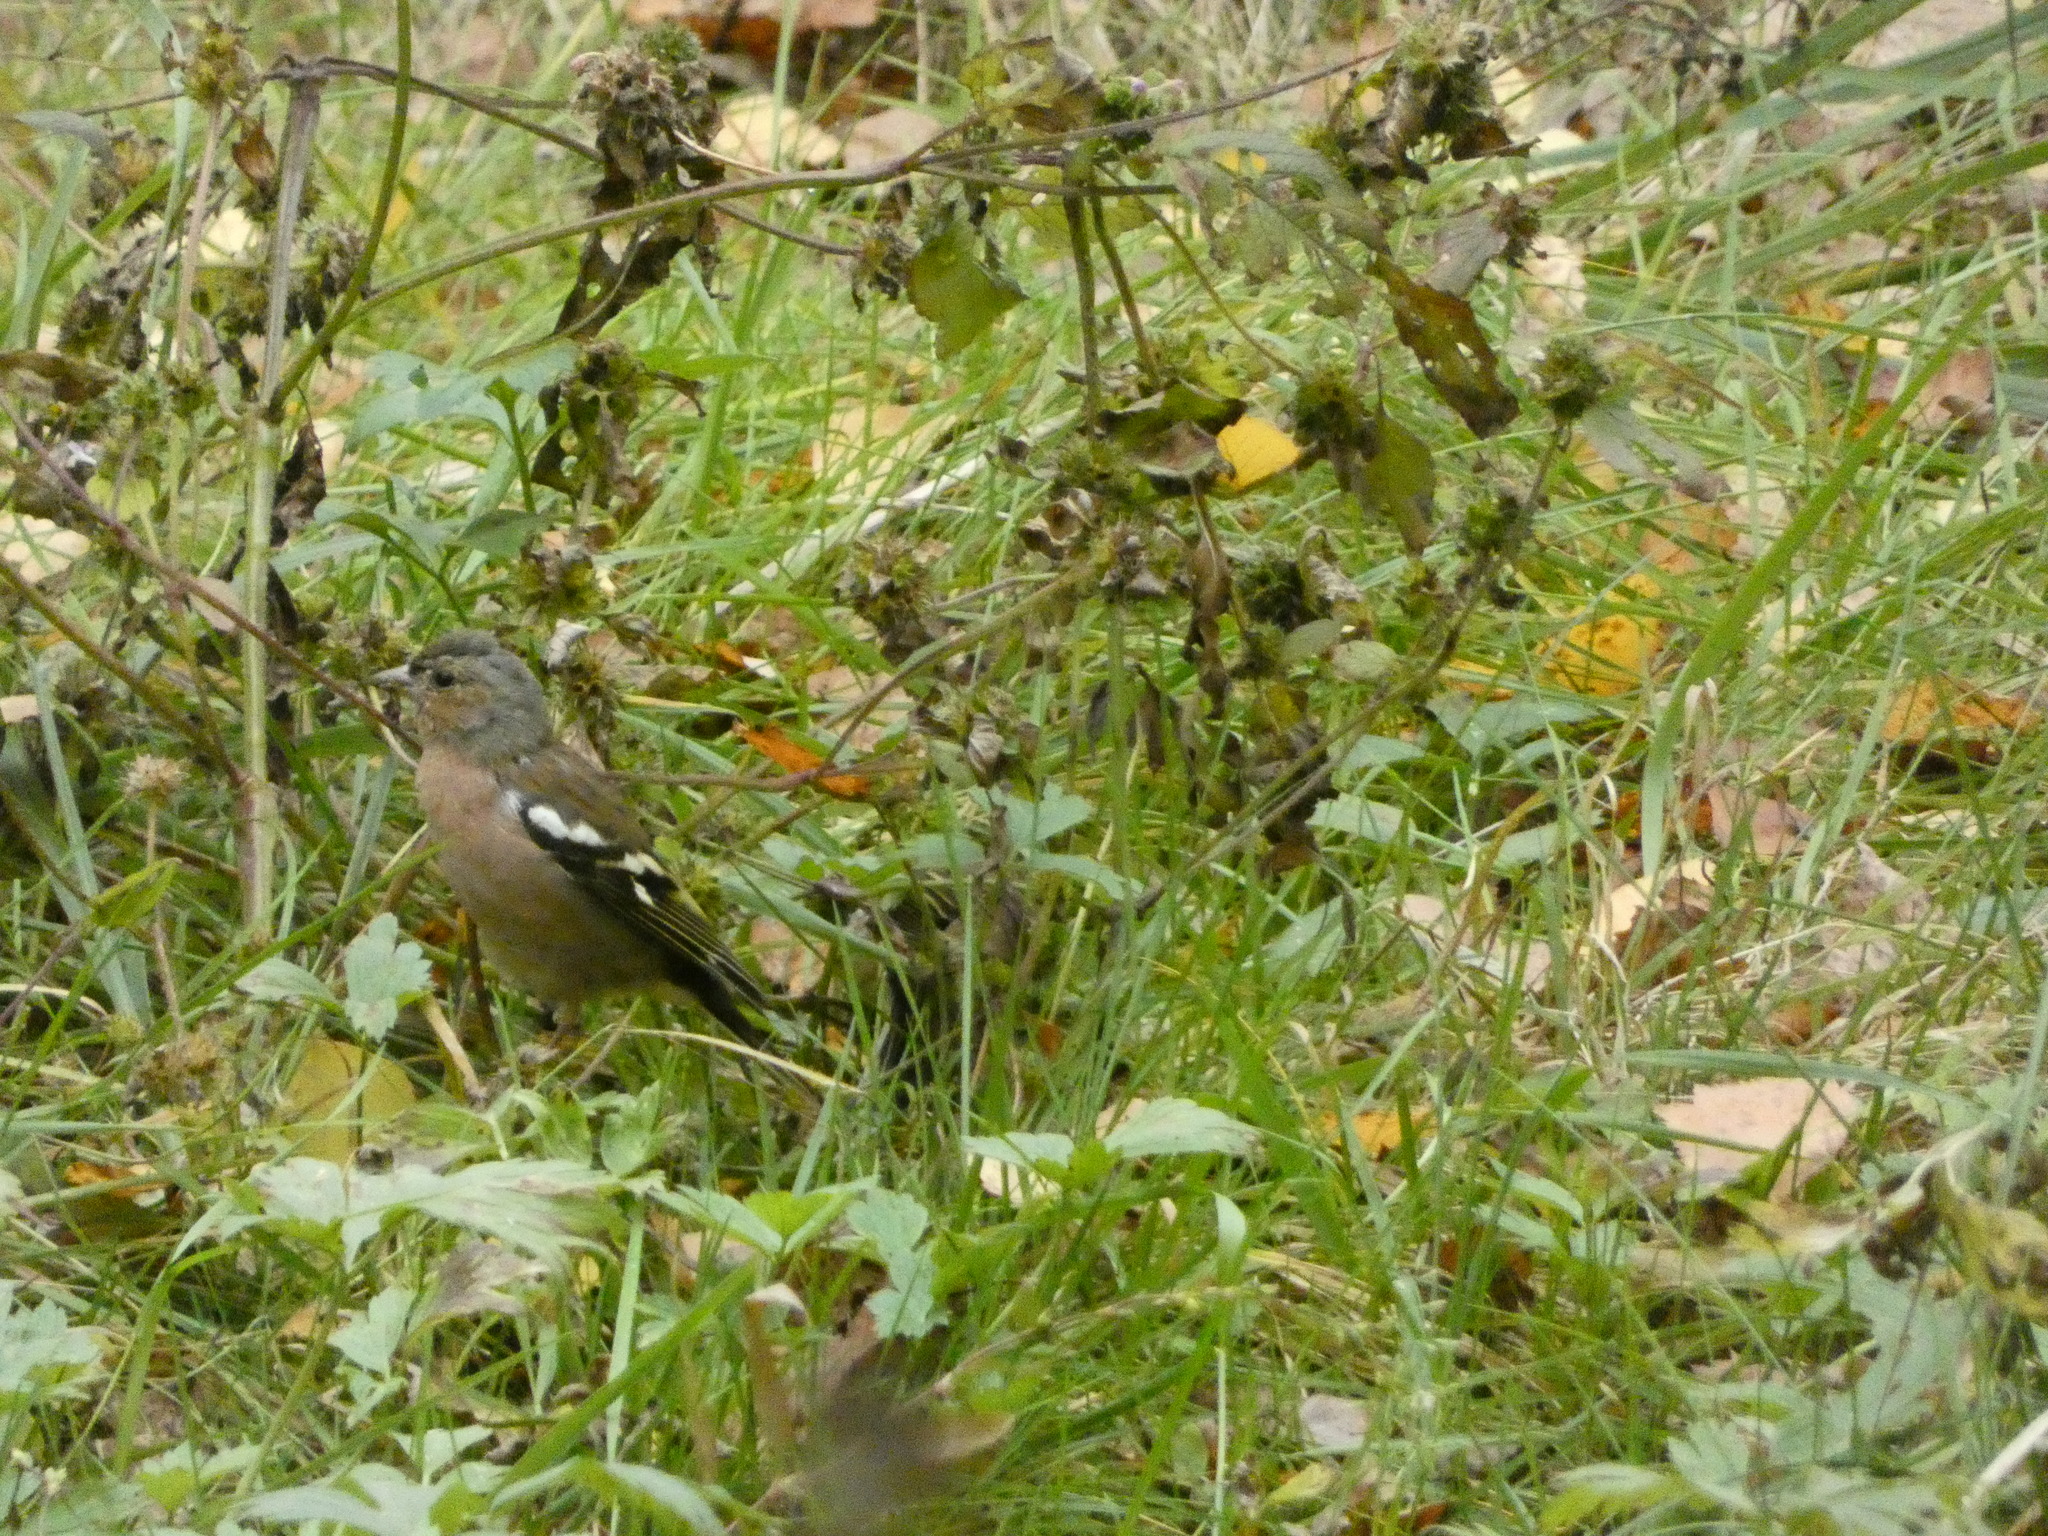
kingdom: Animalia
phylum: Chordata
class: Aves
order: Passeriformes
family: Fringillidae
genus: Fringilla
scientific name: Fringilla coelebs
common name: Common chaffinch
